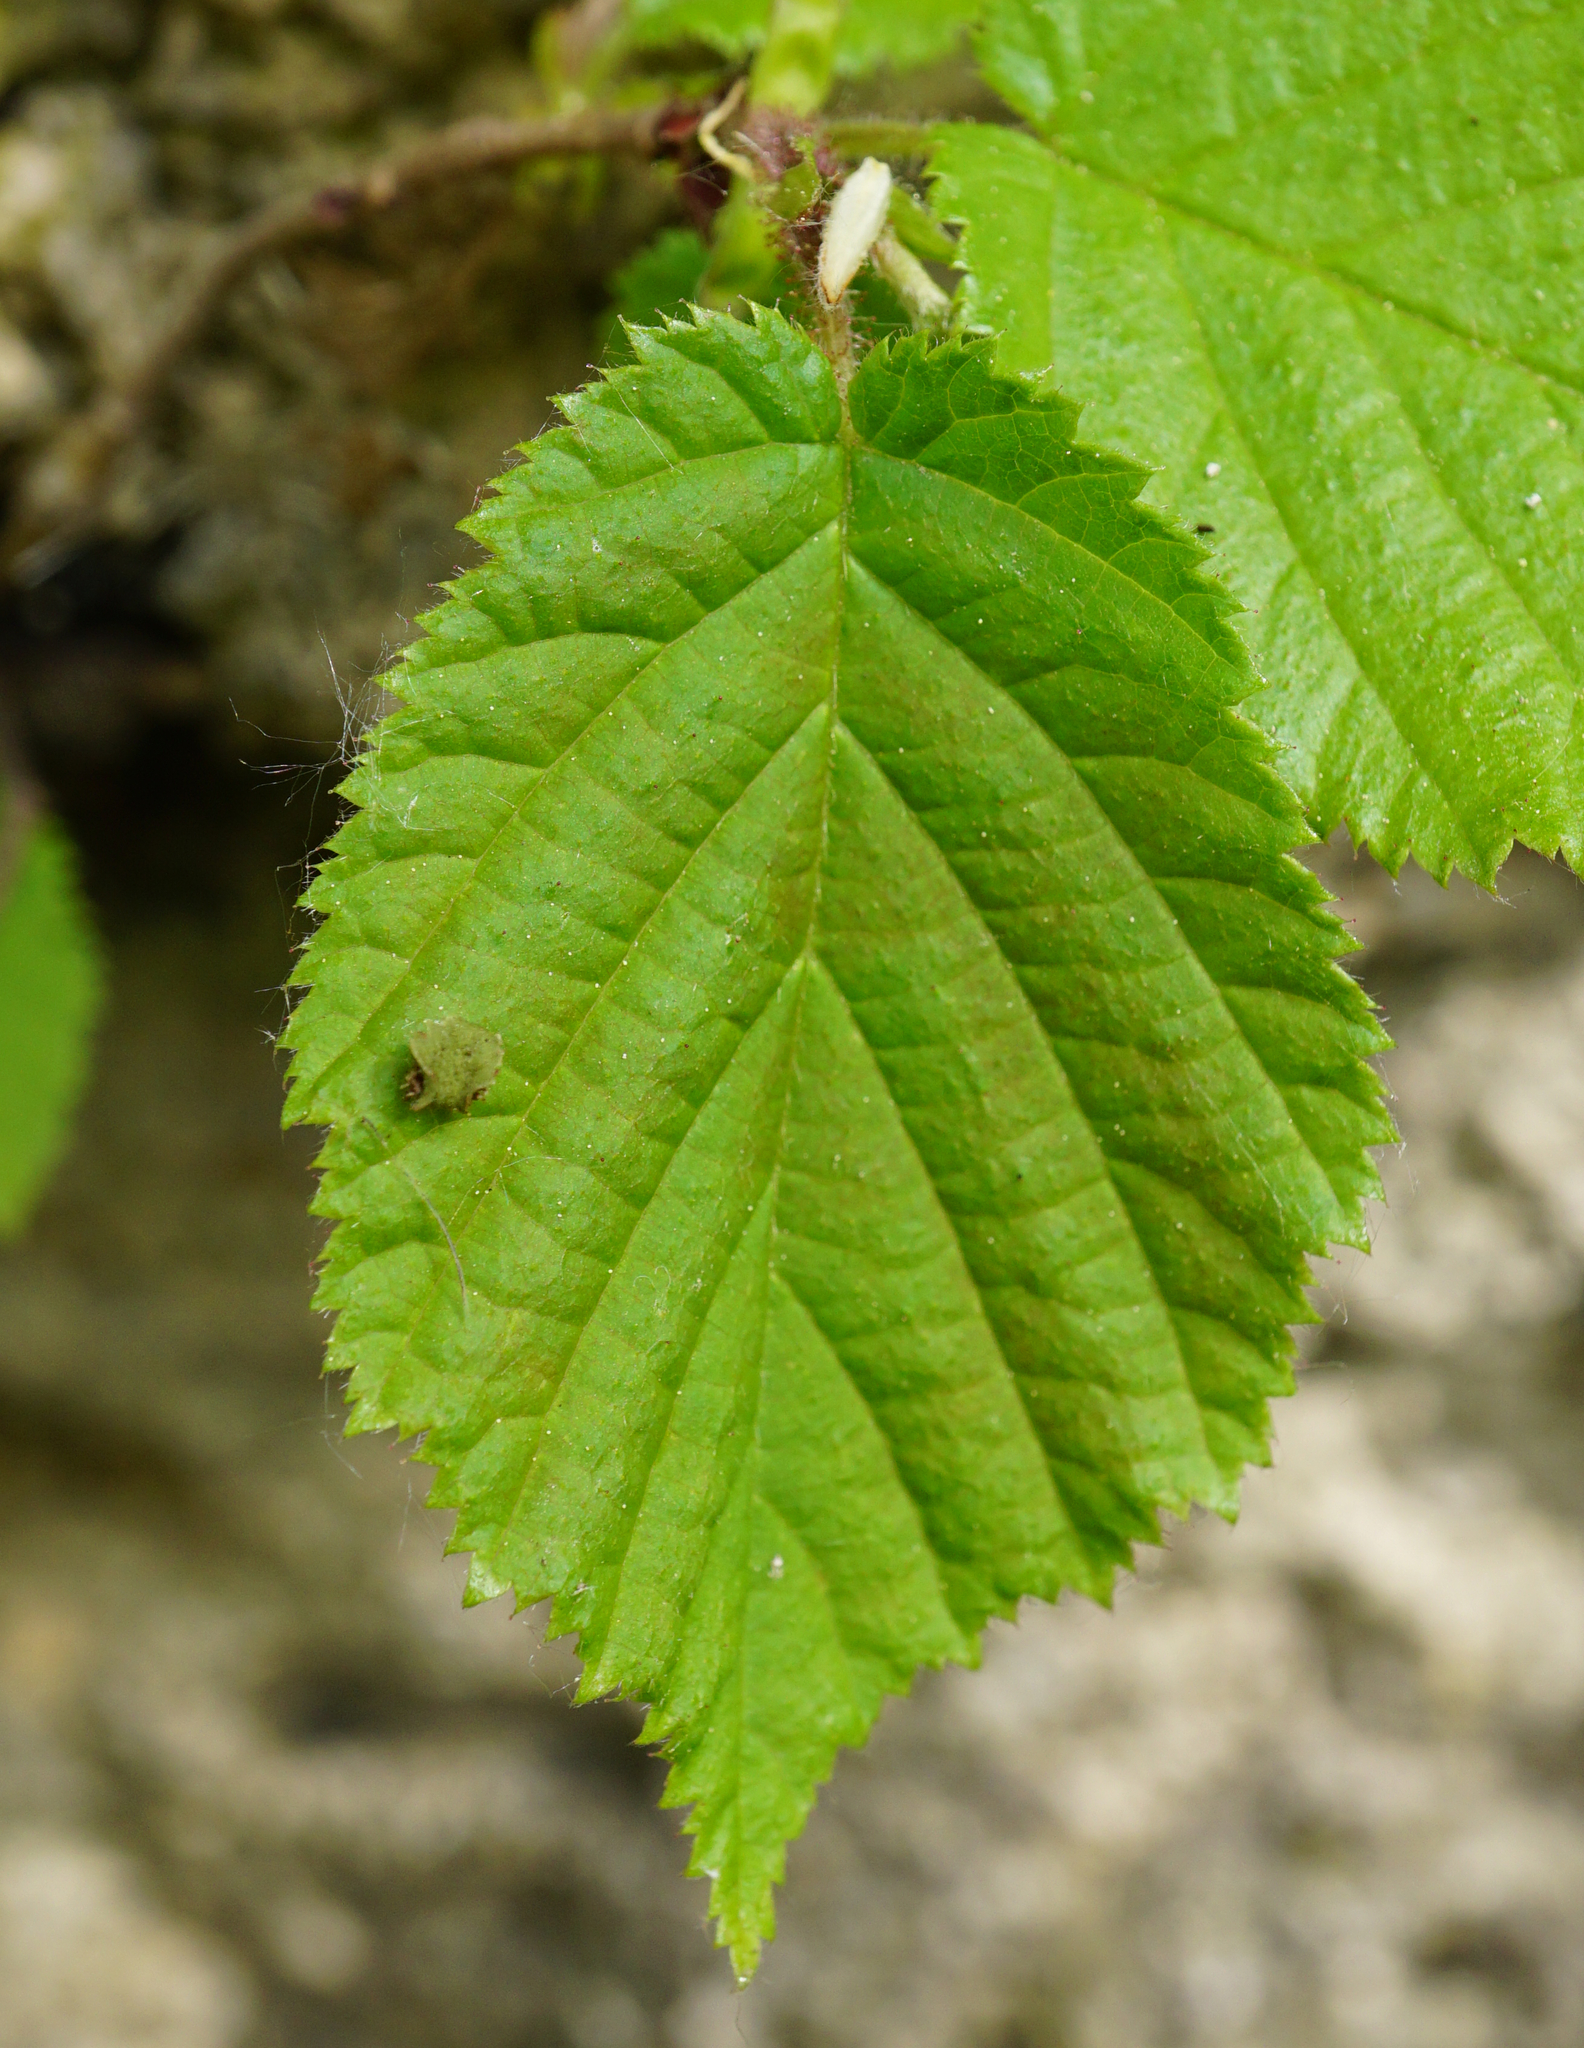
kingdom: Plantae
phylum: Tracheophyta
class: Magnoliopsida
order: Fagales
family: Betulaceae
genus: Corylus
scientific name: Corylus avellana
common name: European hazel
